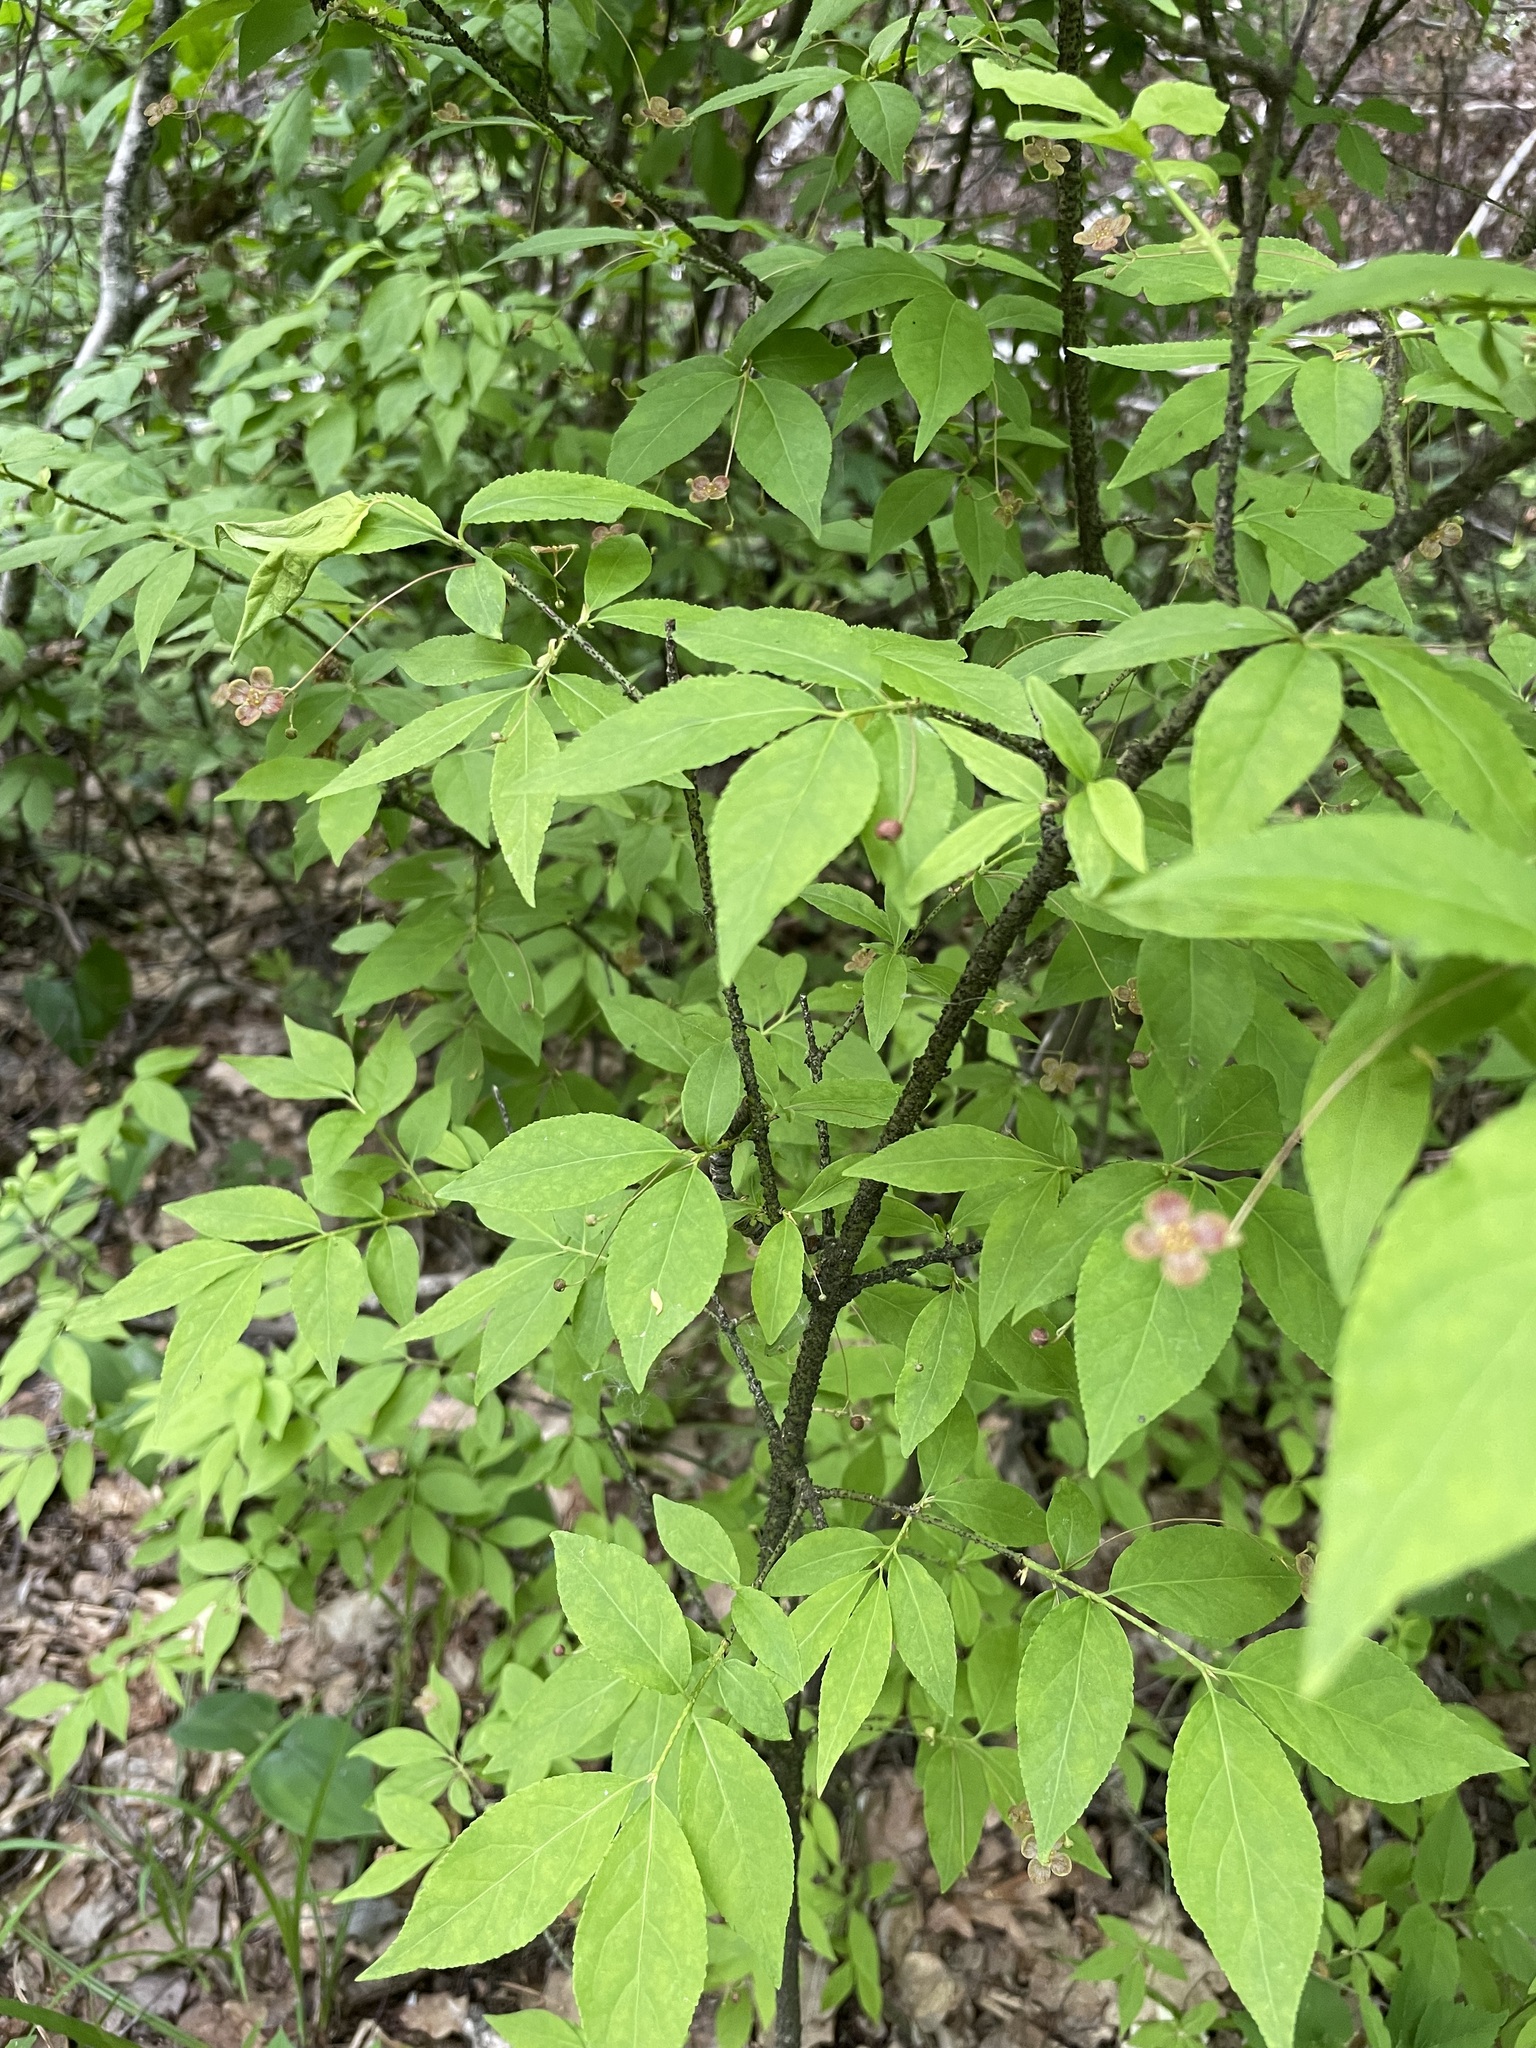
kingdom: Plantae
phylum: Tracheophyta
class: Magnoliopsida
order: Celastrales
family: Celastraceae
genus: Euonymus
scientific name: Euonymus verrucosus
